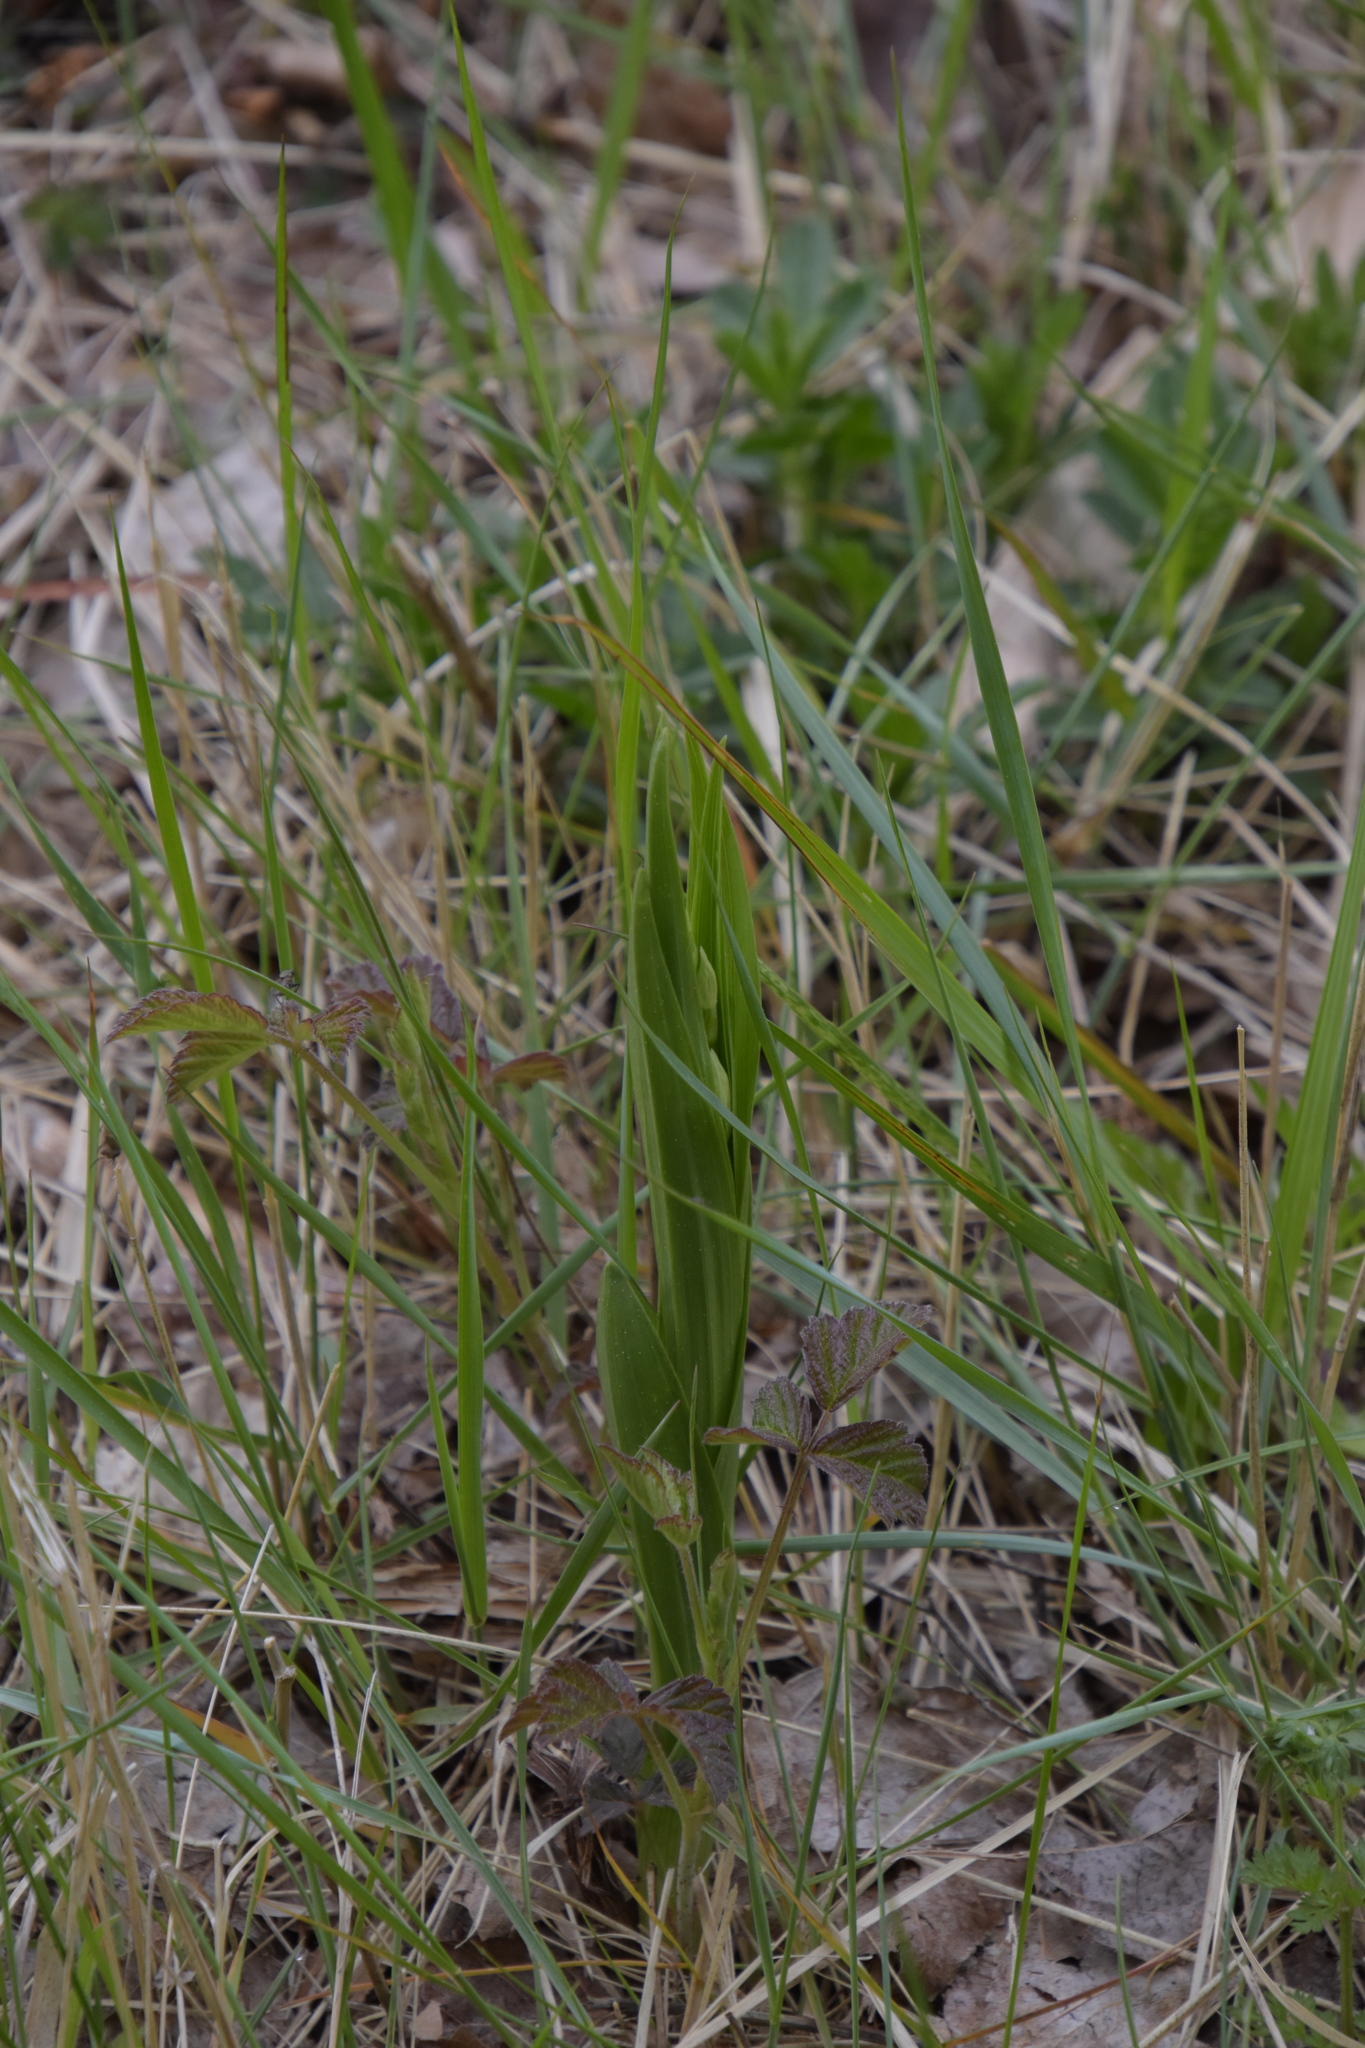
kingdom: Plantae
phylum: Tracheophyta
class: Liliopsida
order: Asparagales
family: Orchidaceae
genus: Cephalanthera
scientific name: Cephalanthera longifolia
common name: Narrow-leaved helleborine
